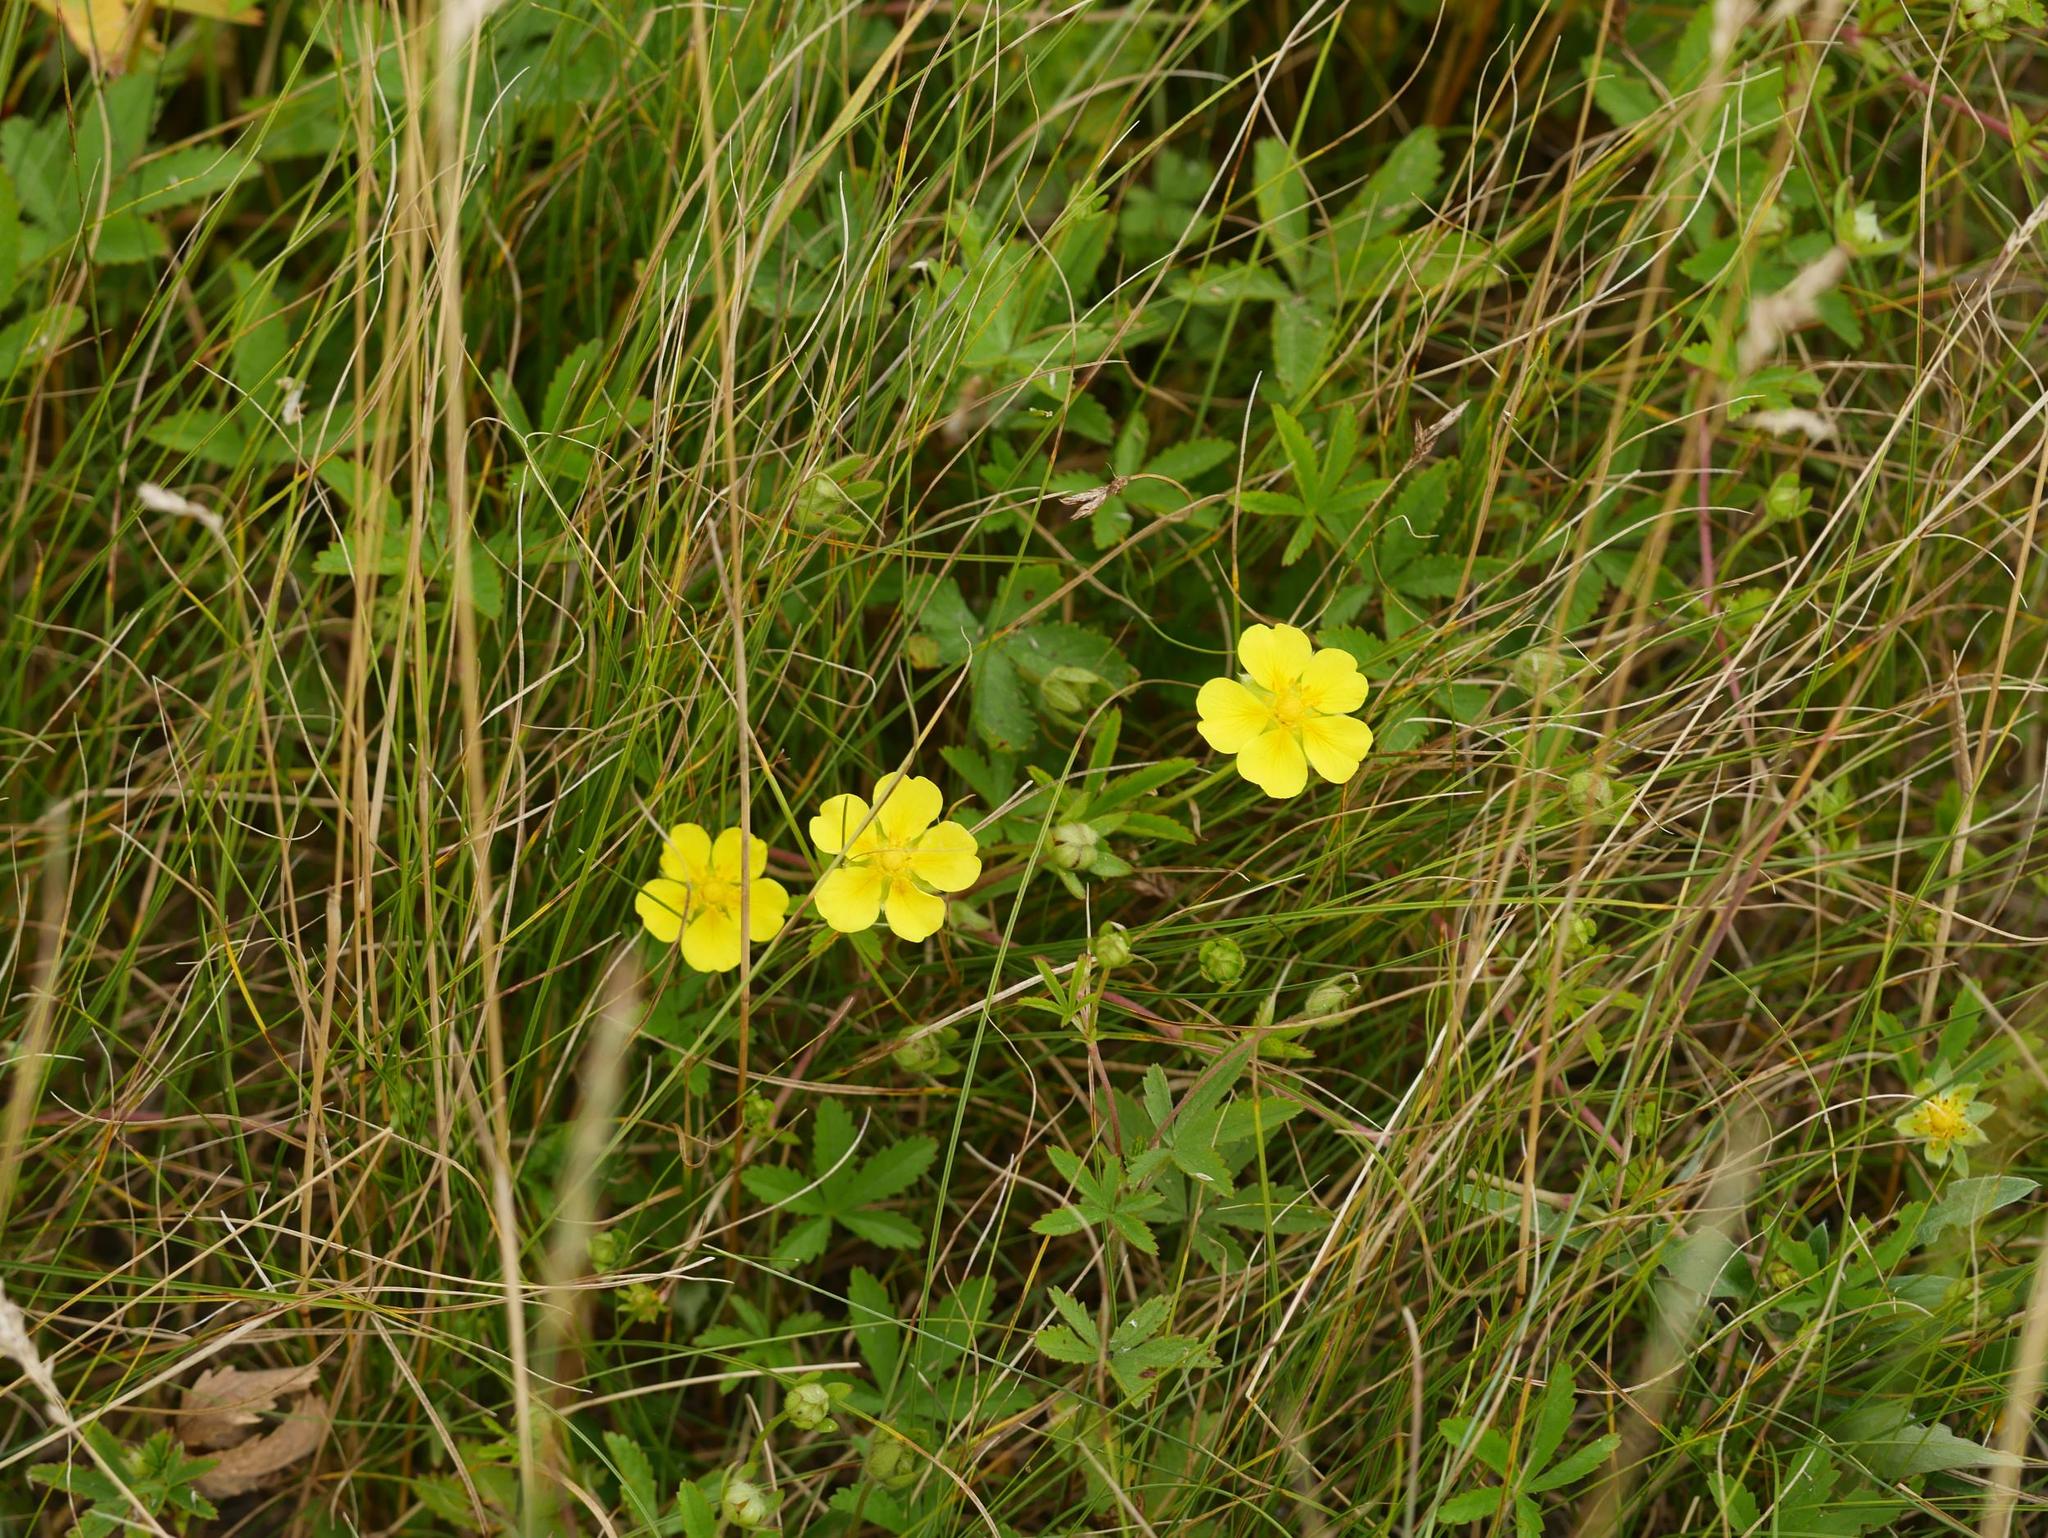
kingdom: Plantae
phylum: Tracheophyta
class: Magnoliopsida
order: Rosales
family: Rosaceae
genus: Potentilla
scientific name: Potentilla reptans
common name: Creeping cinquefoil
